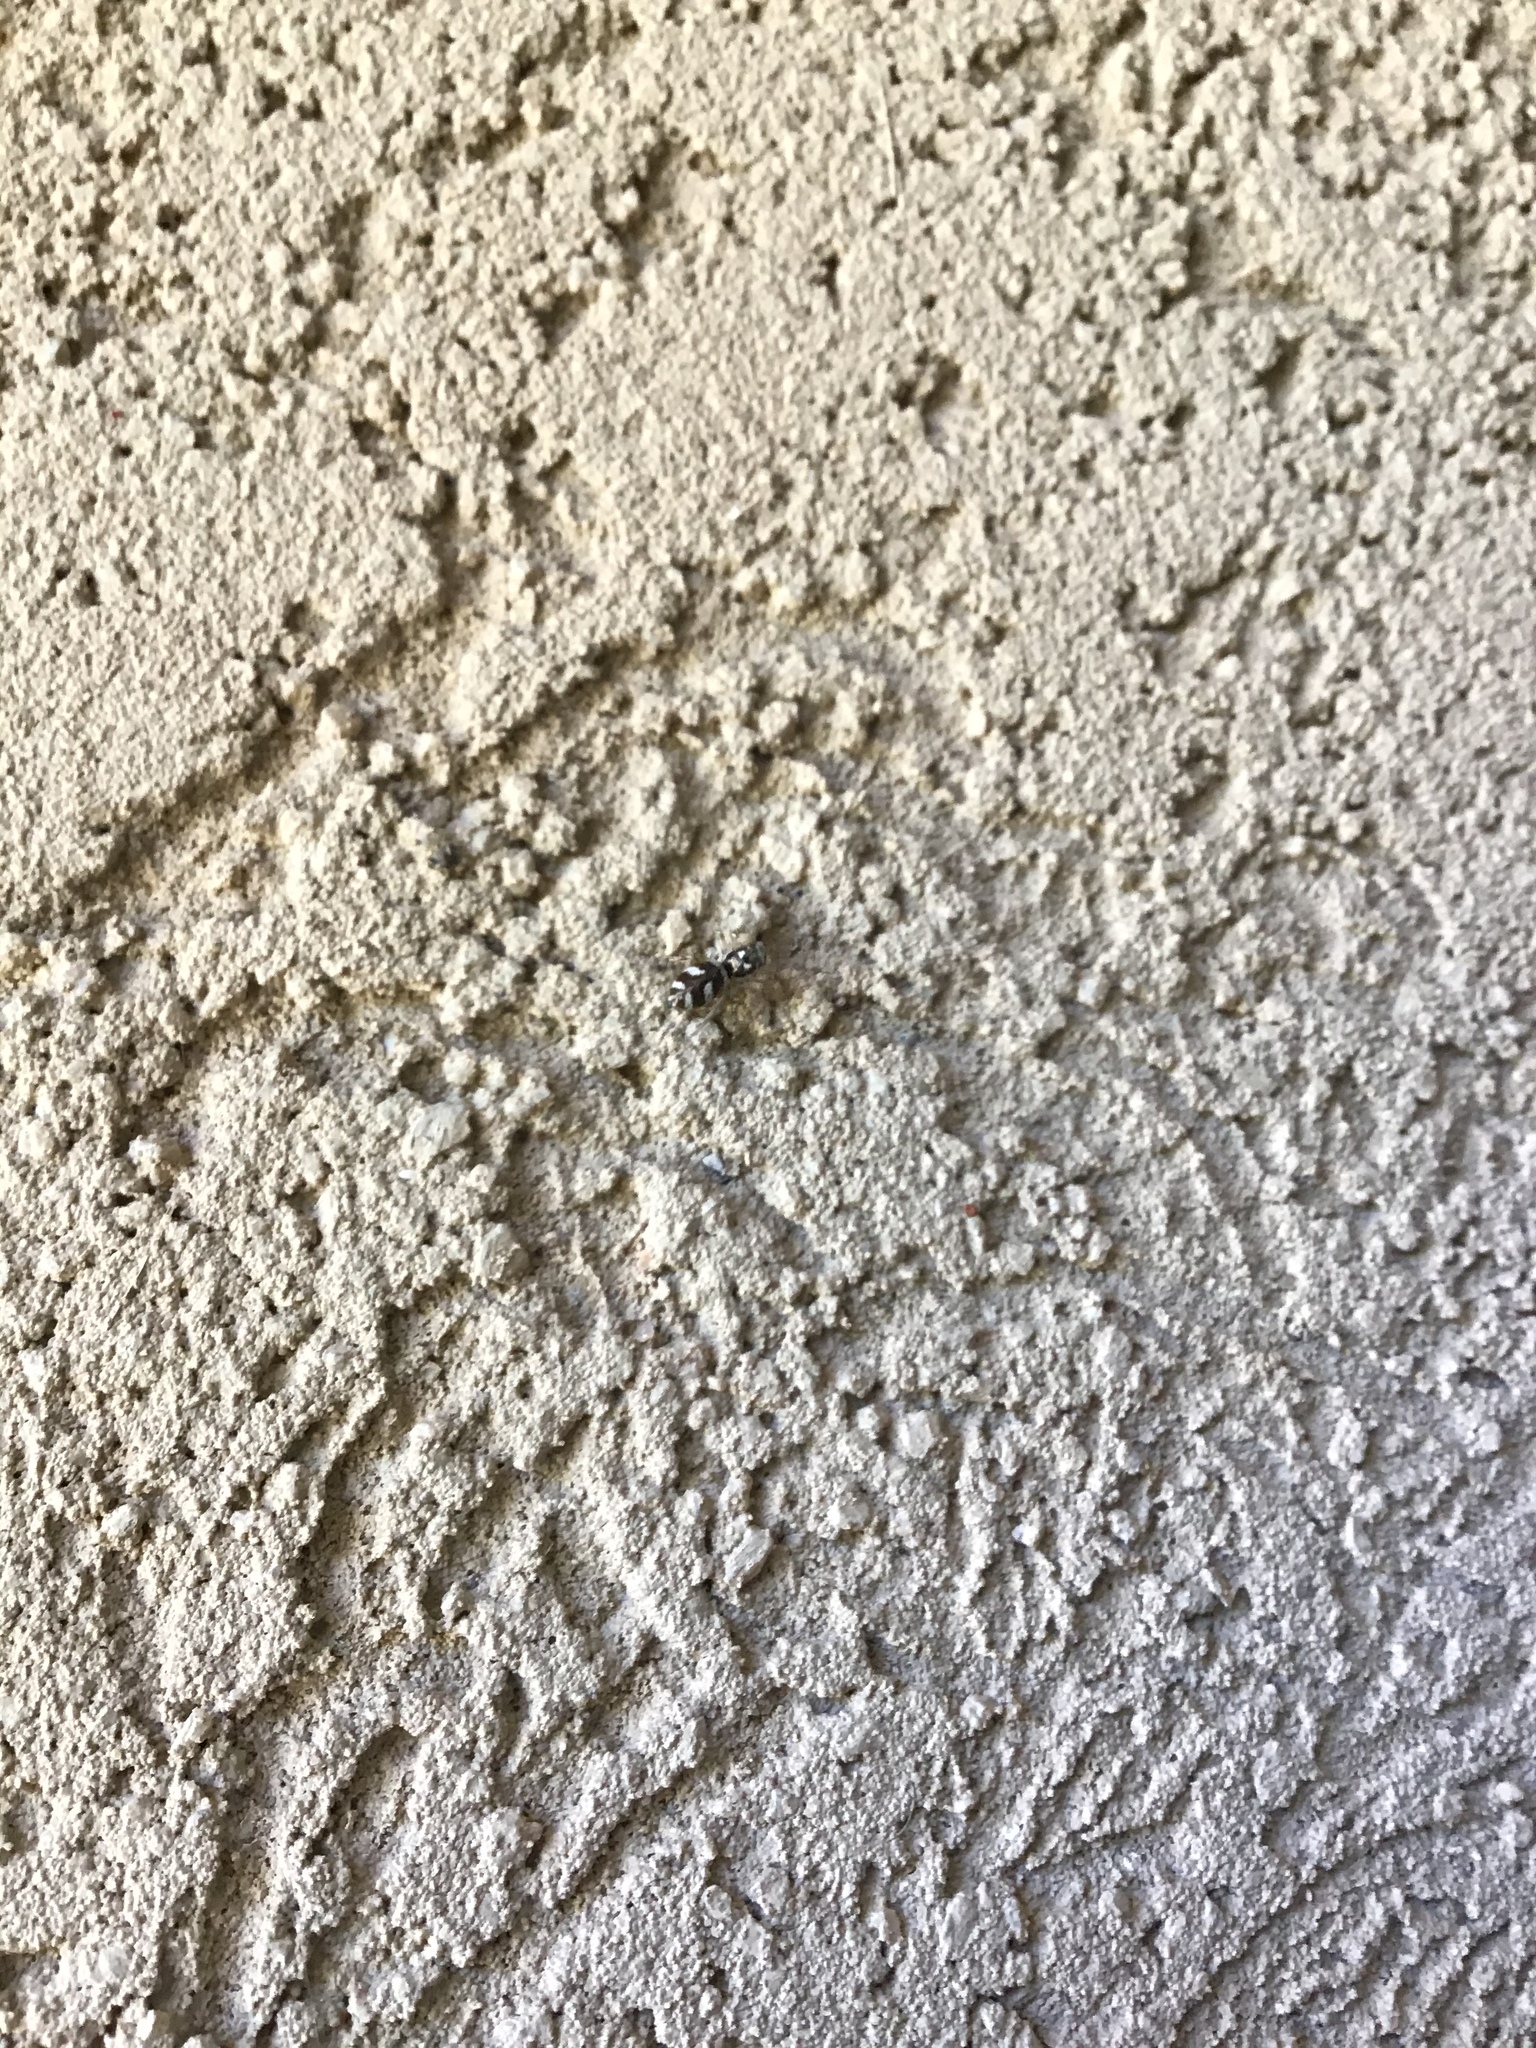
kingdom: Animalia
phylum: Arthropoda
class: Arachnida
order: Araneae
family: Salticidae
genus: Salticus
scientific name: Salticus scenicus
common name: Zebra jumper
